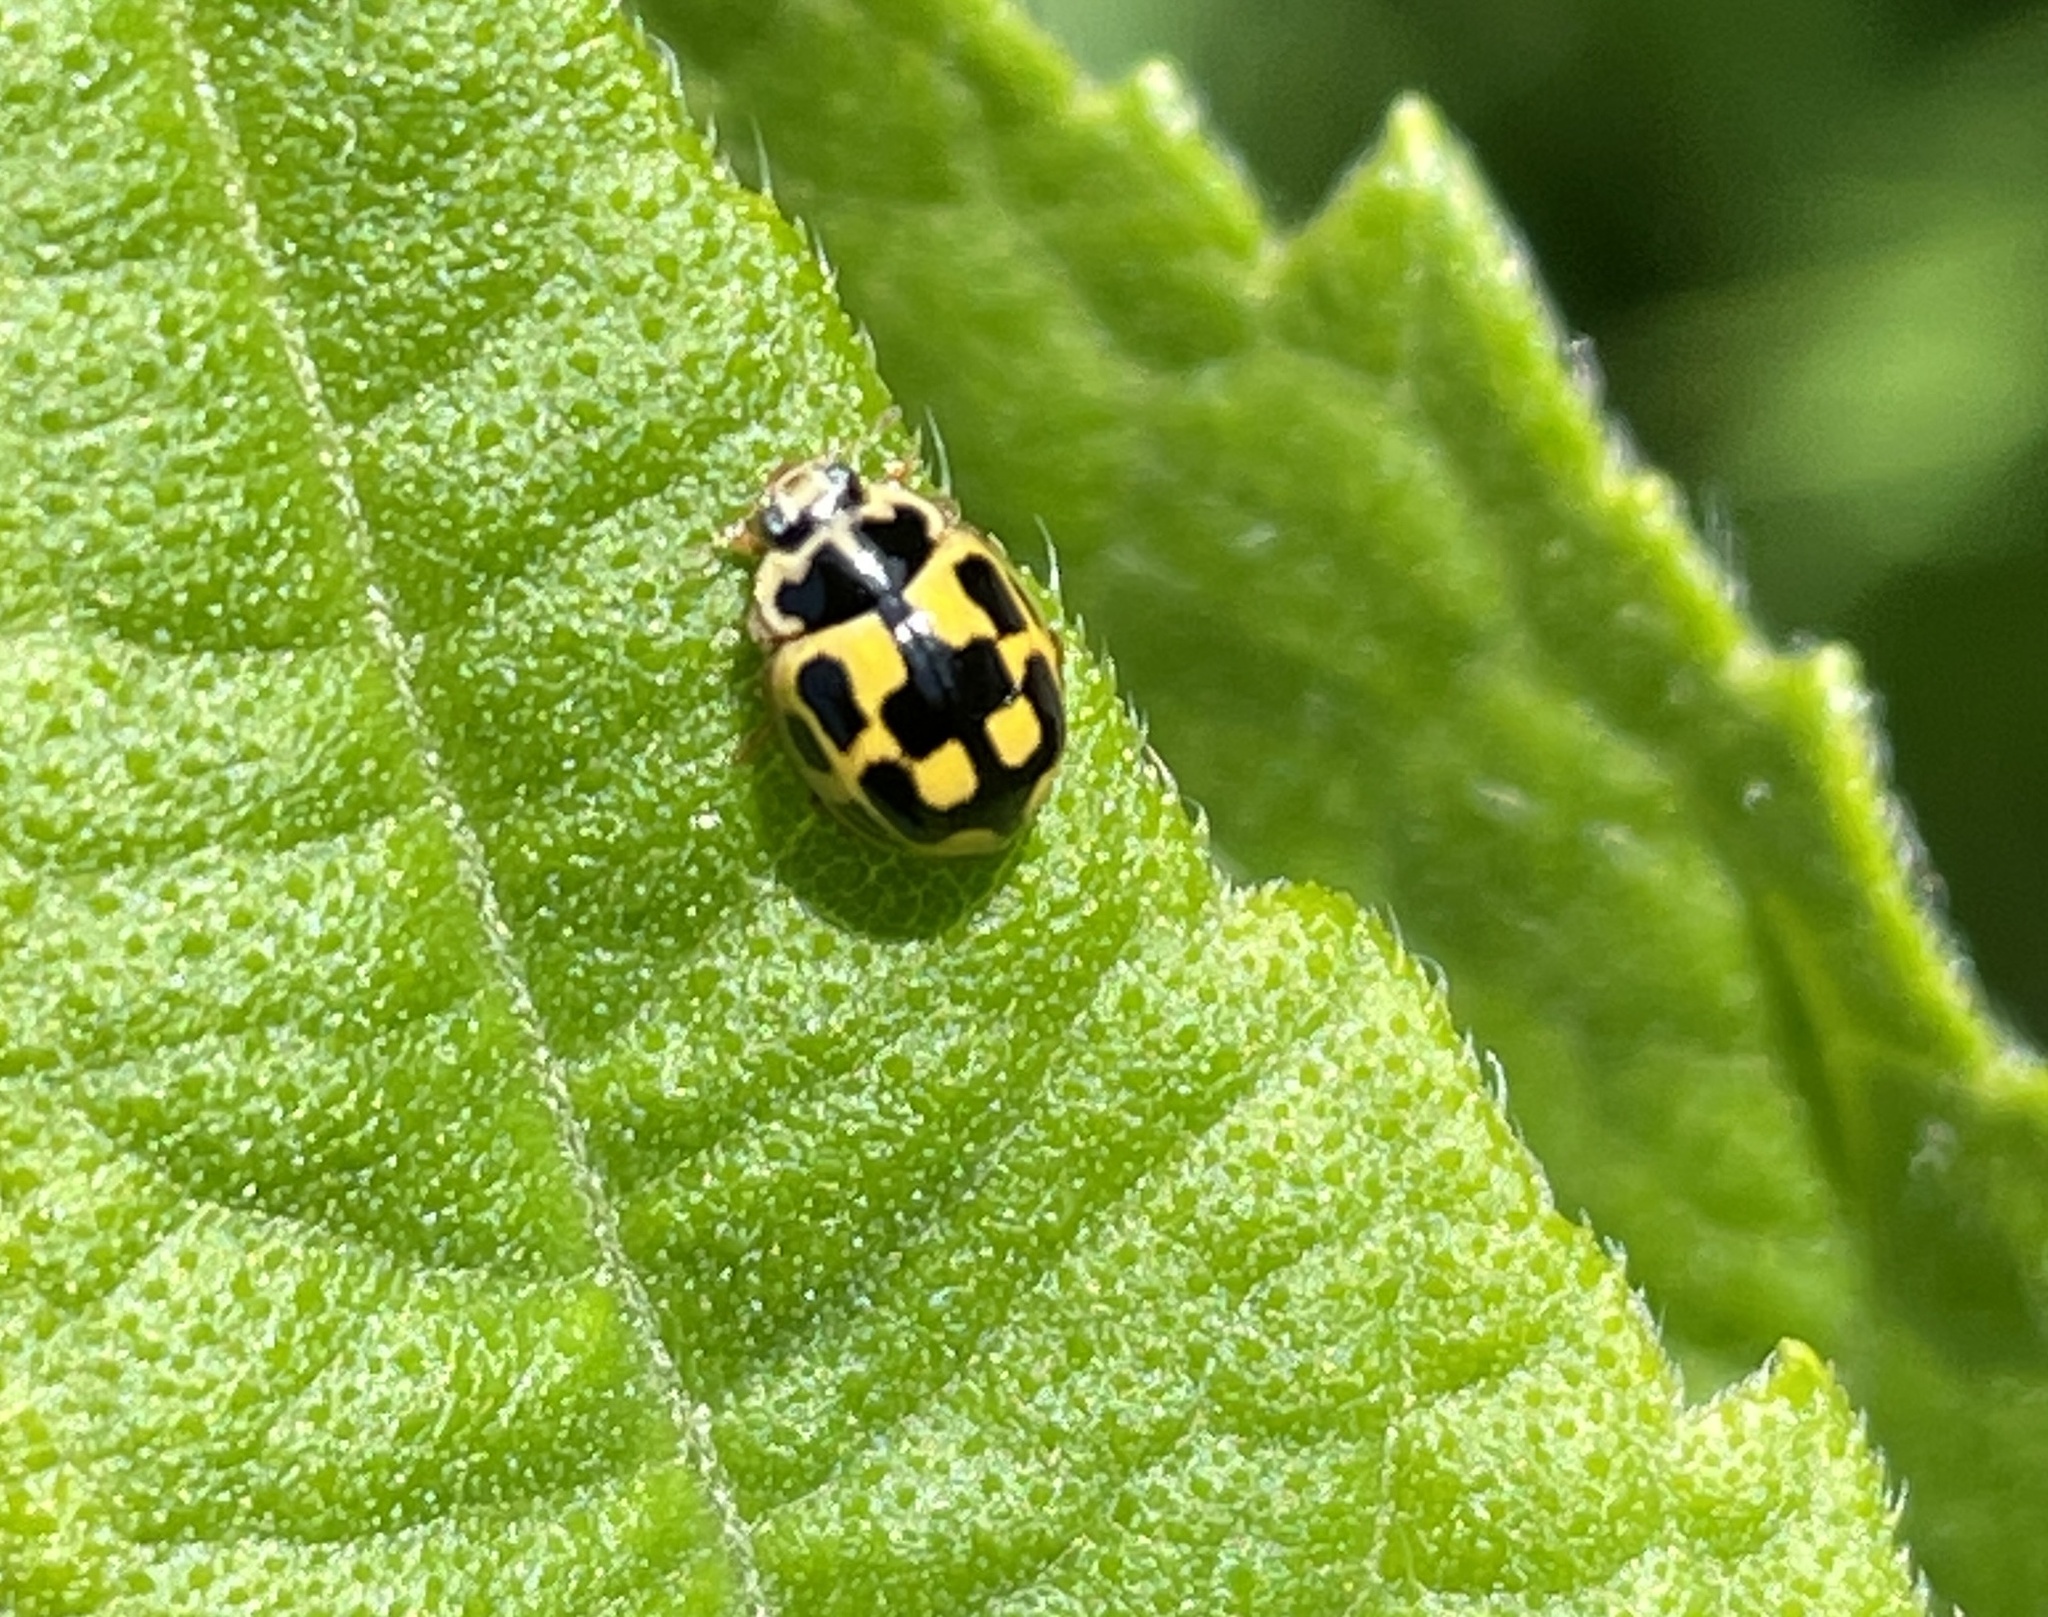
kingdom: Animalia
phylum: Arthropoda
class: Insecta
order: Coleoptera
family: Coccinellidae
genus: Propylaea
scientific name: Propylaea quatuordecimpunctata
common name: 14-spotted ladybird beetle
